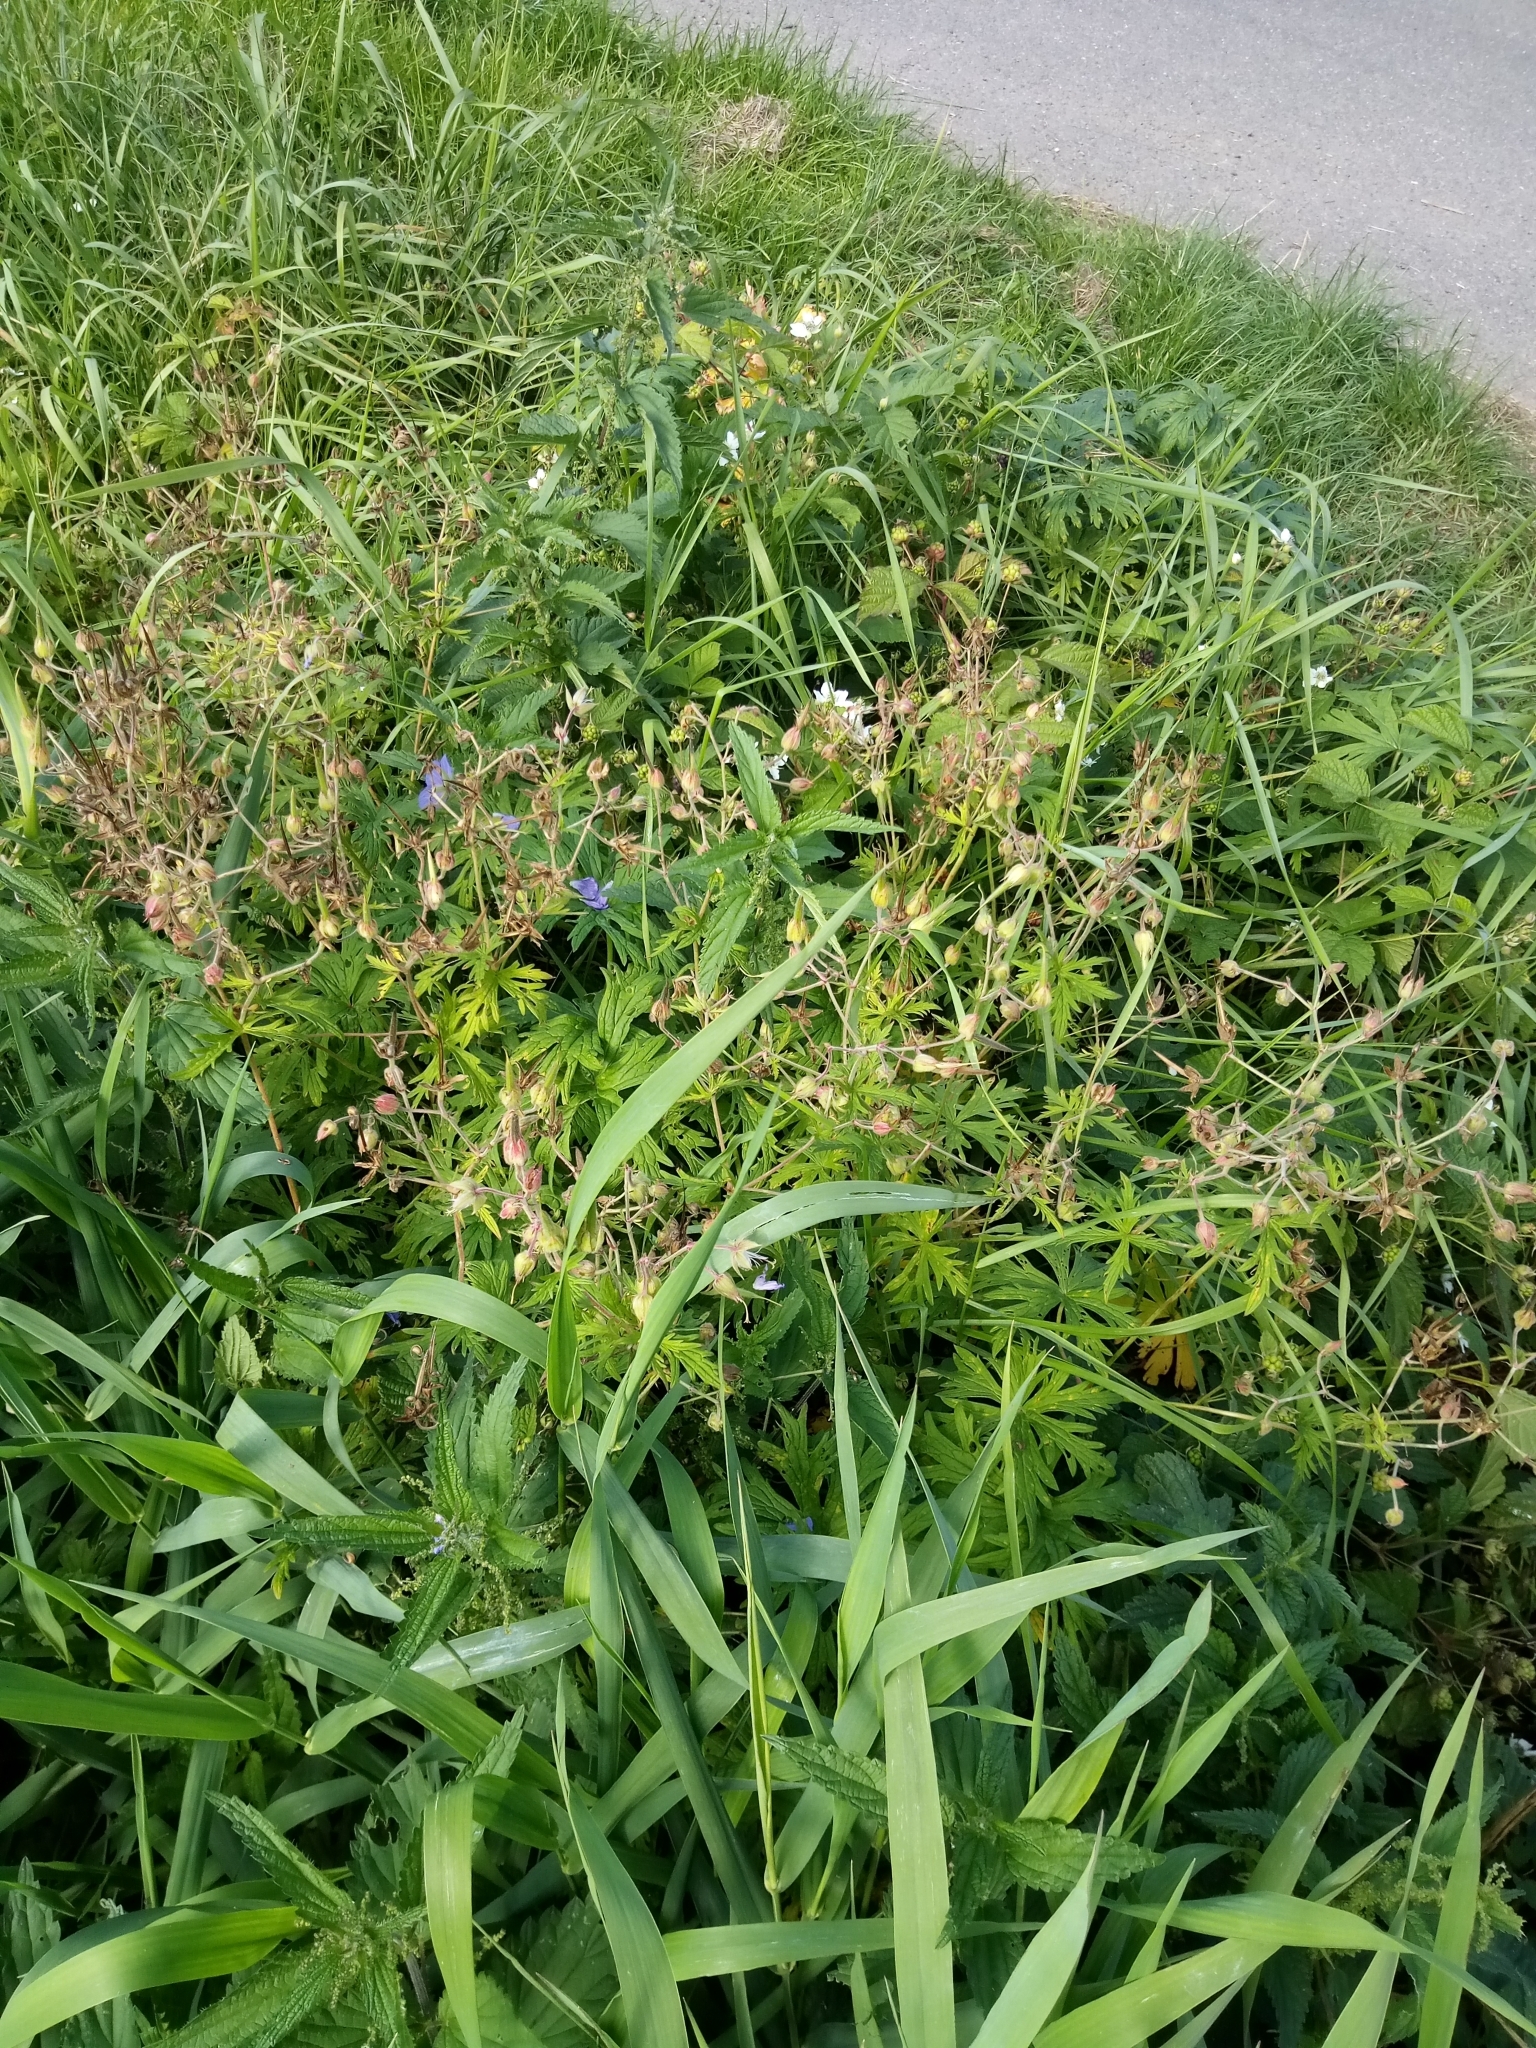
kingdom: Plantae
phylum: Tracheophyta
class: Magnoliopsida
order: Geraniales
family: Geraniaceae
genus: Geranium
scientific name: Geranium pratense
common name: Meadow crane's-bill
